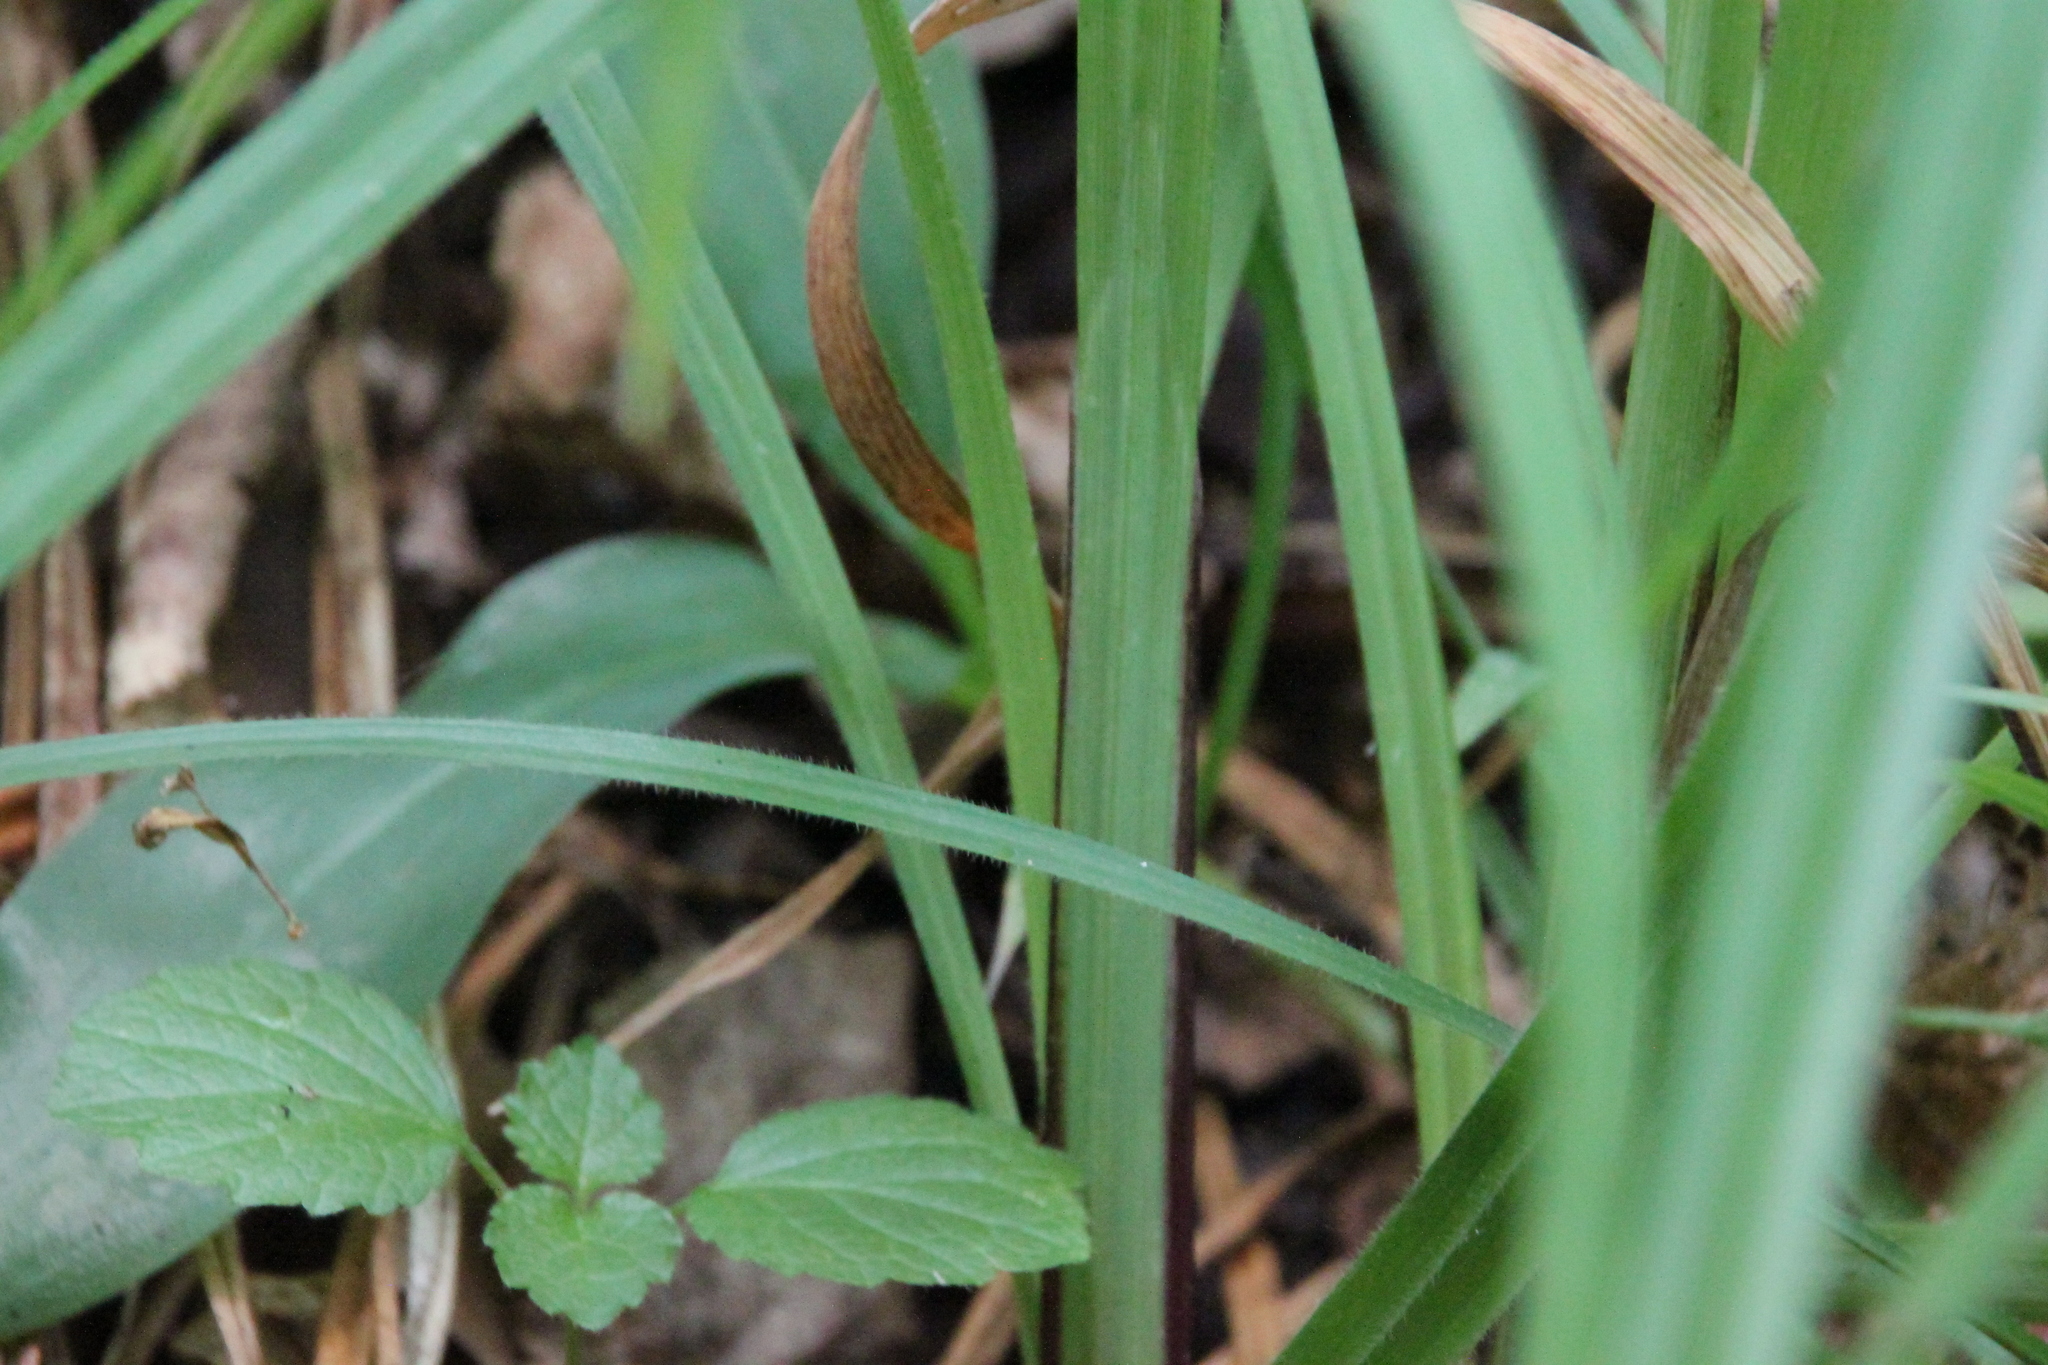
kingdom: Plantae
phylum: Tracheophyta
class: Liliopsida
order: Poales
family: Cyperaceae
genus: Carex
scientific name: Carex pilosa
